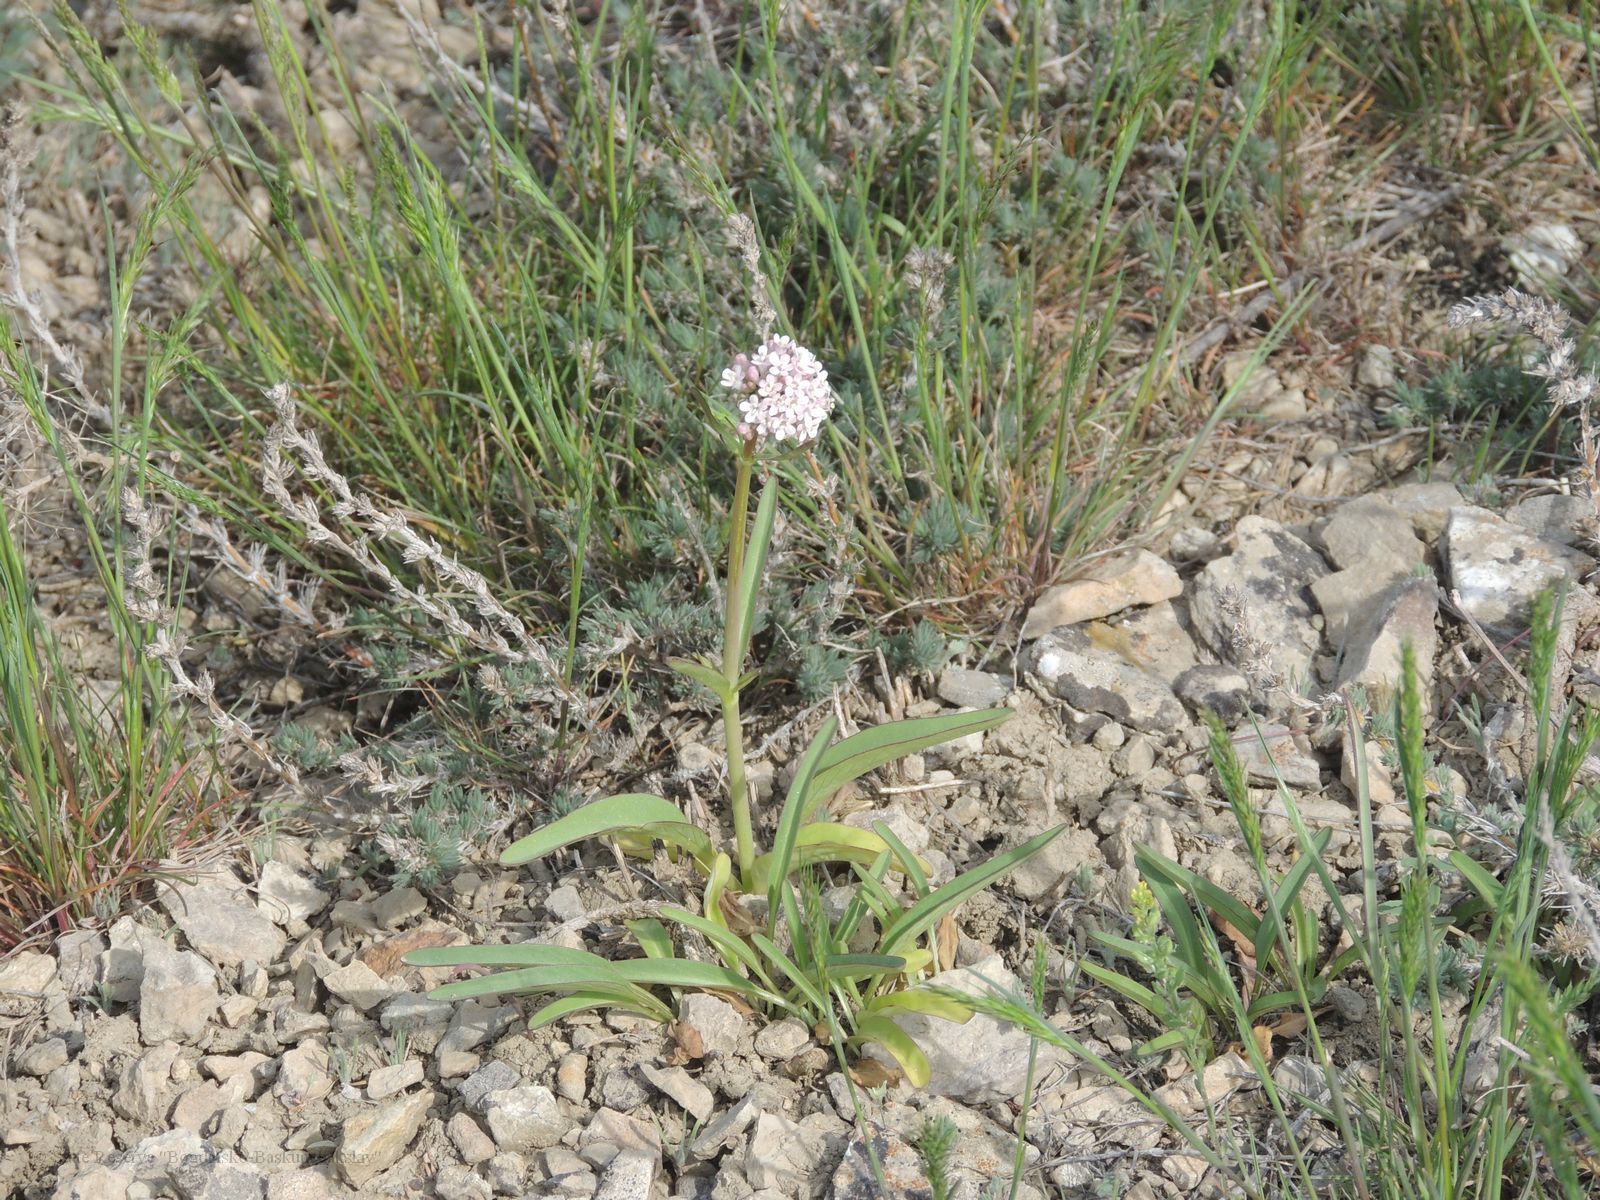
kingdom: Plantae
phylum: Tracheophyta
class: Magnoliopsida
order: Dipsacales
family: Caprifoliaceae
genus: Valeriana
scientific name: Valeriana tuberosa
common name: Tuberous valerian
